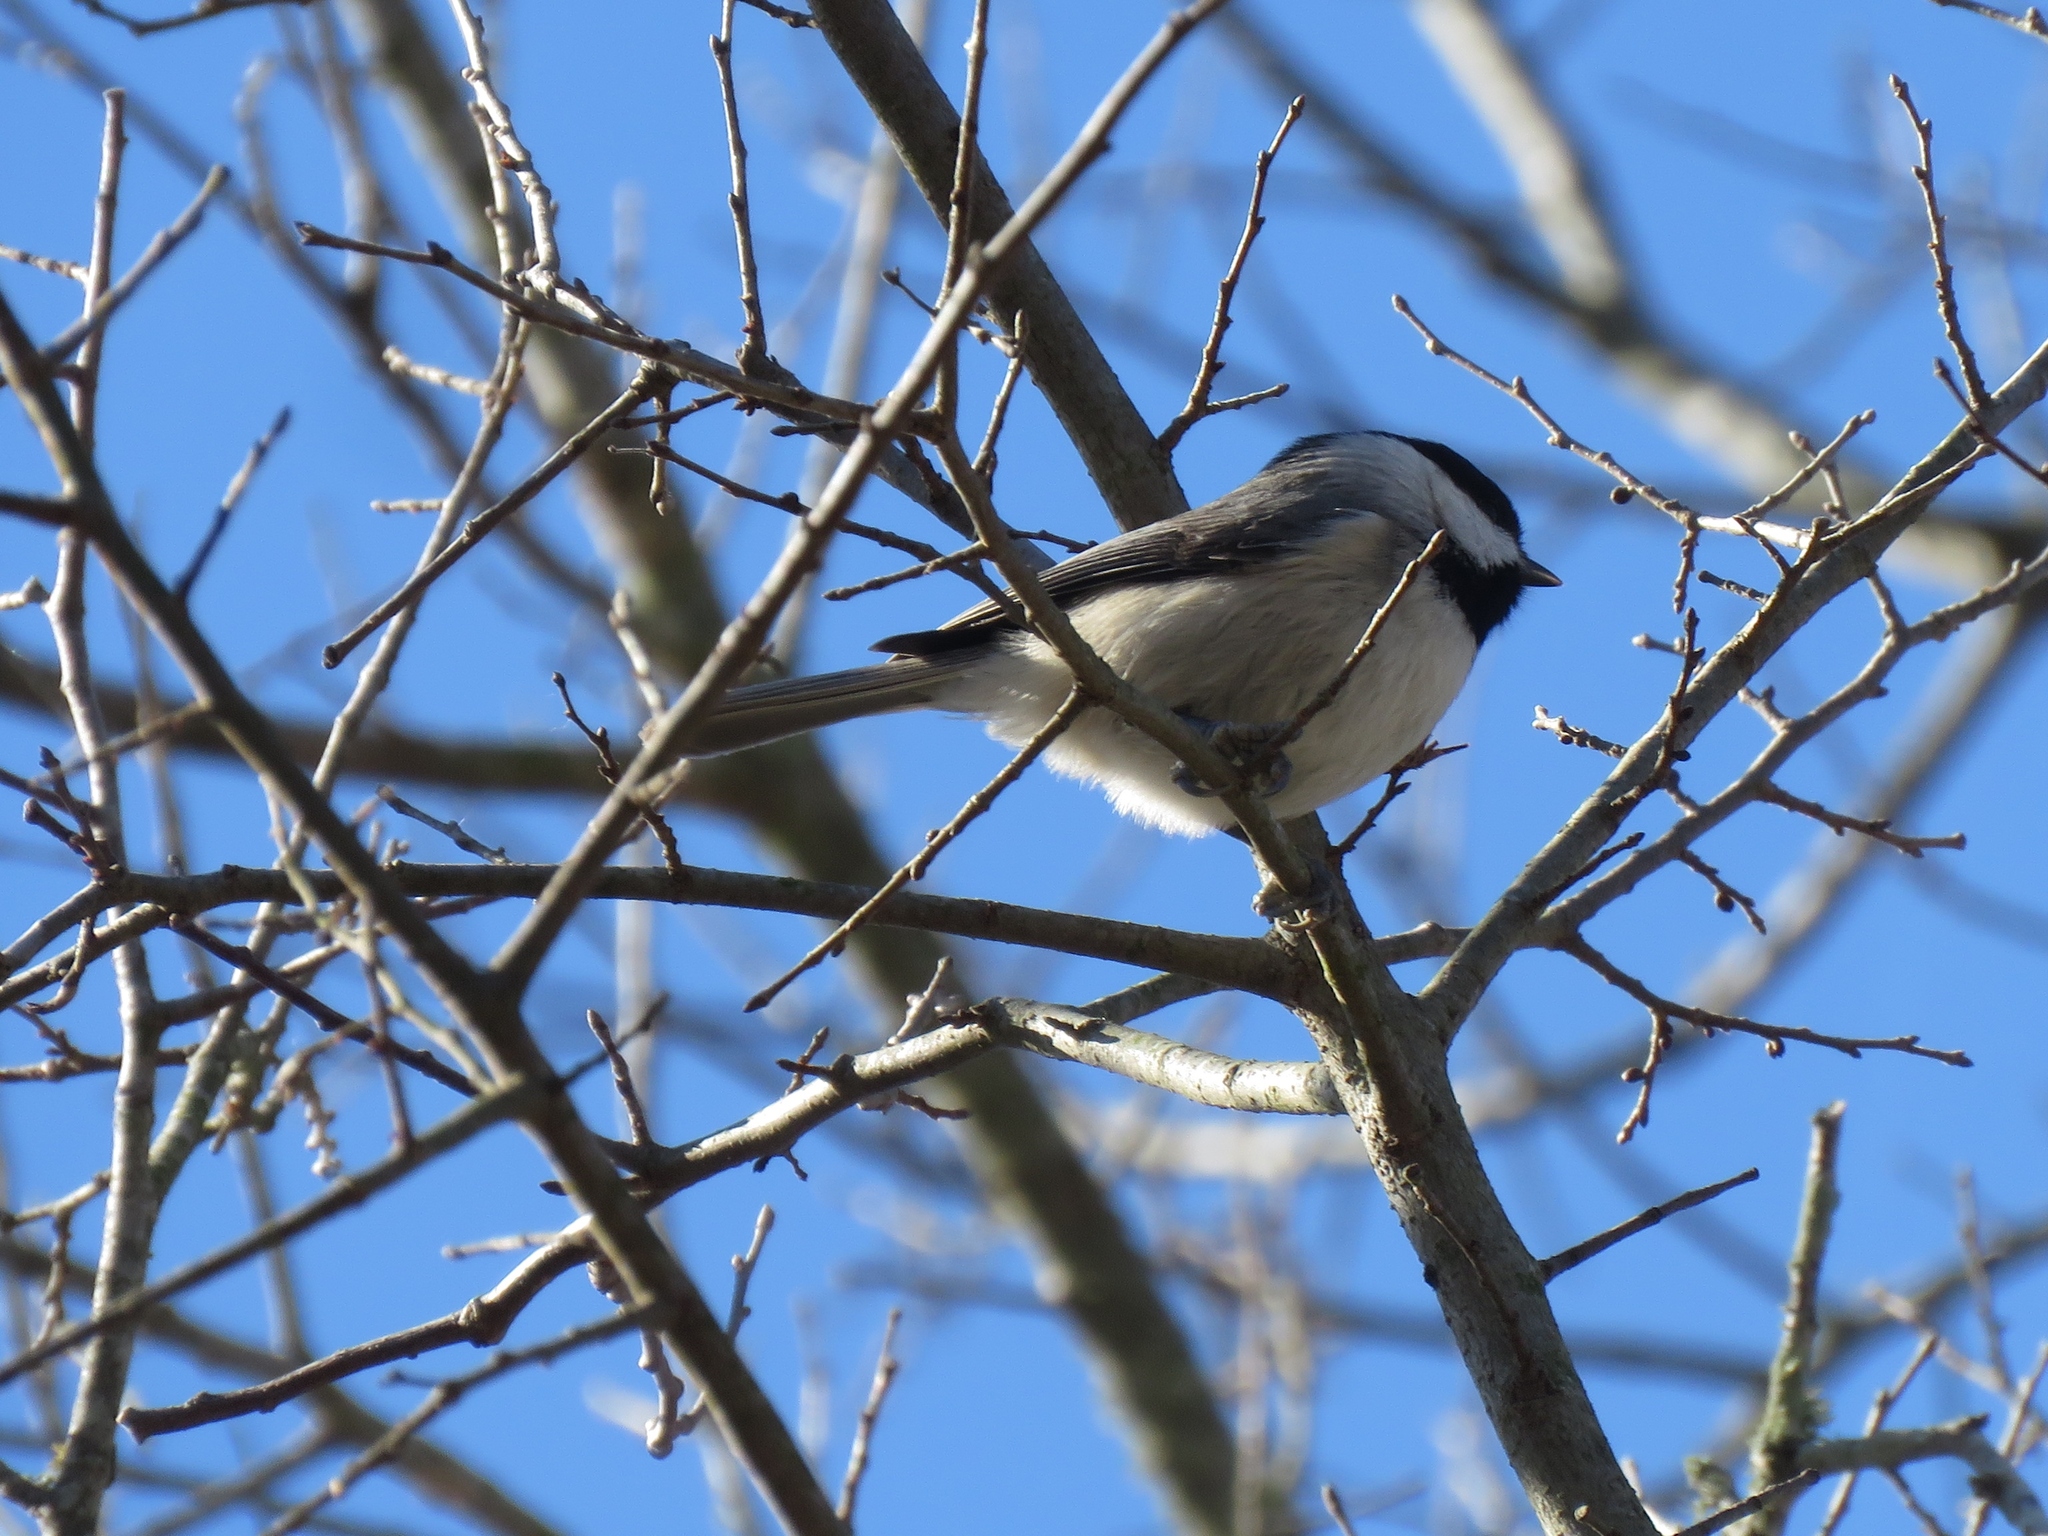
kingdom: Animalia
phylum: Chordata
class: Aves
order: Passeriformes
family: Paridae
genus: Poecile
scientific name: Poecile carolinensis
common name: Carolina chickadee
